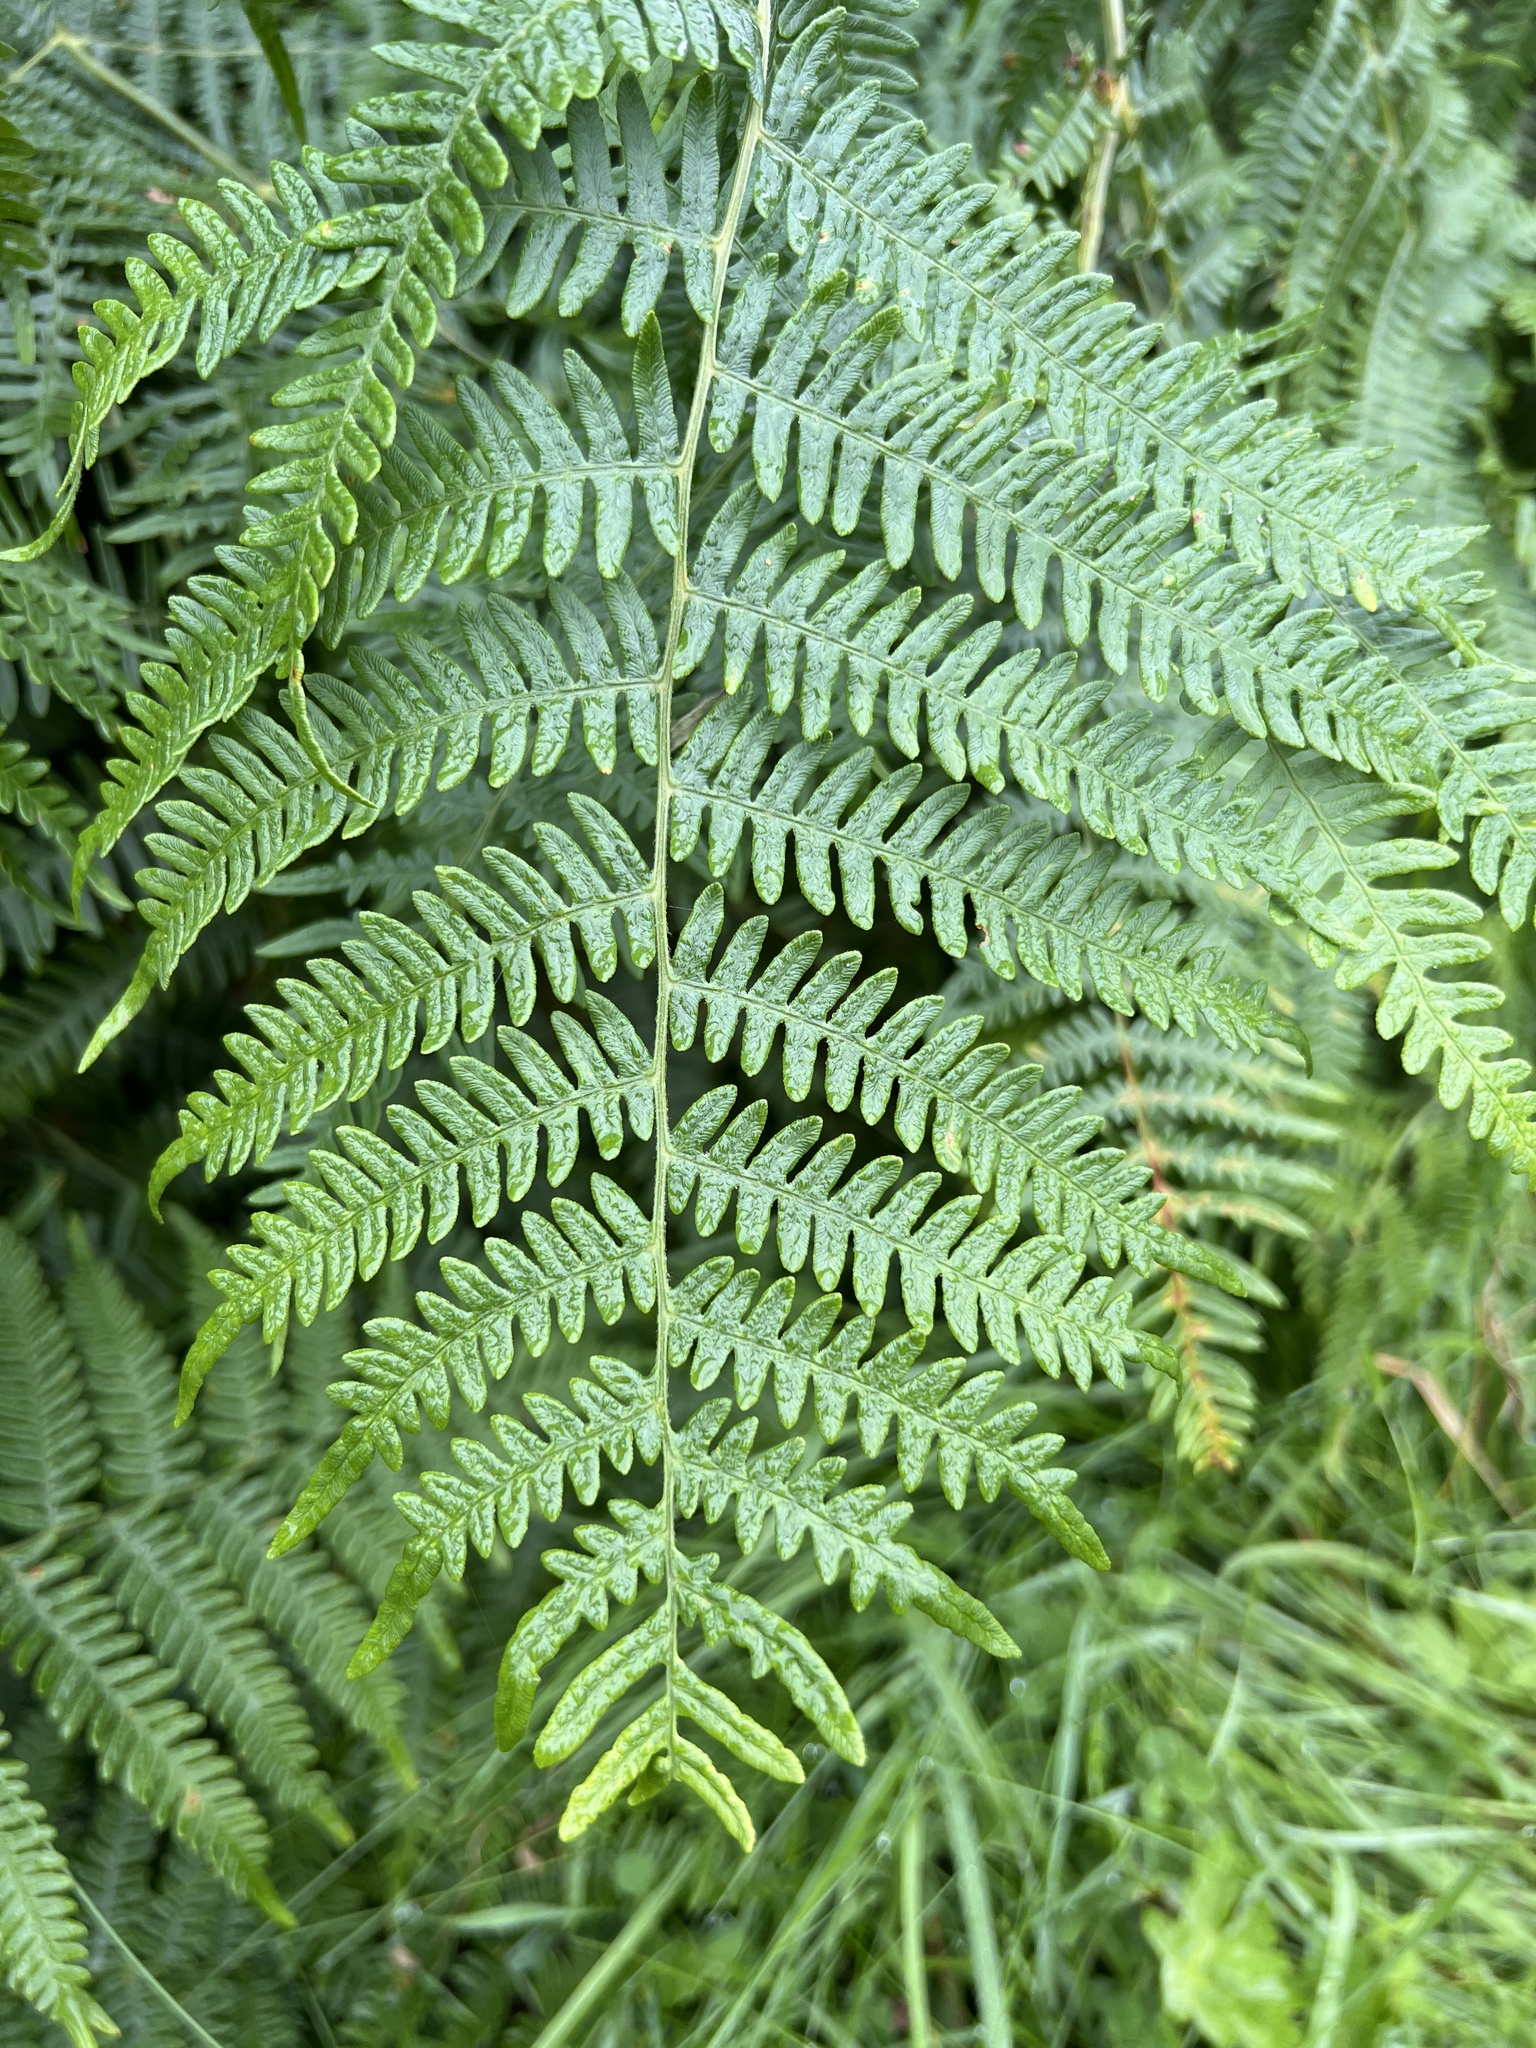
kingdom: Plantae
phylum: Tracheophyta
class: Polypodiopsida
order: Polypodiales
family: Dennstaedtiaceae
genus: Pteridium
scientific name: Pteridium aquilinum
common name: Bracken
